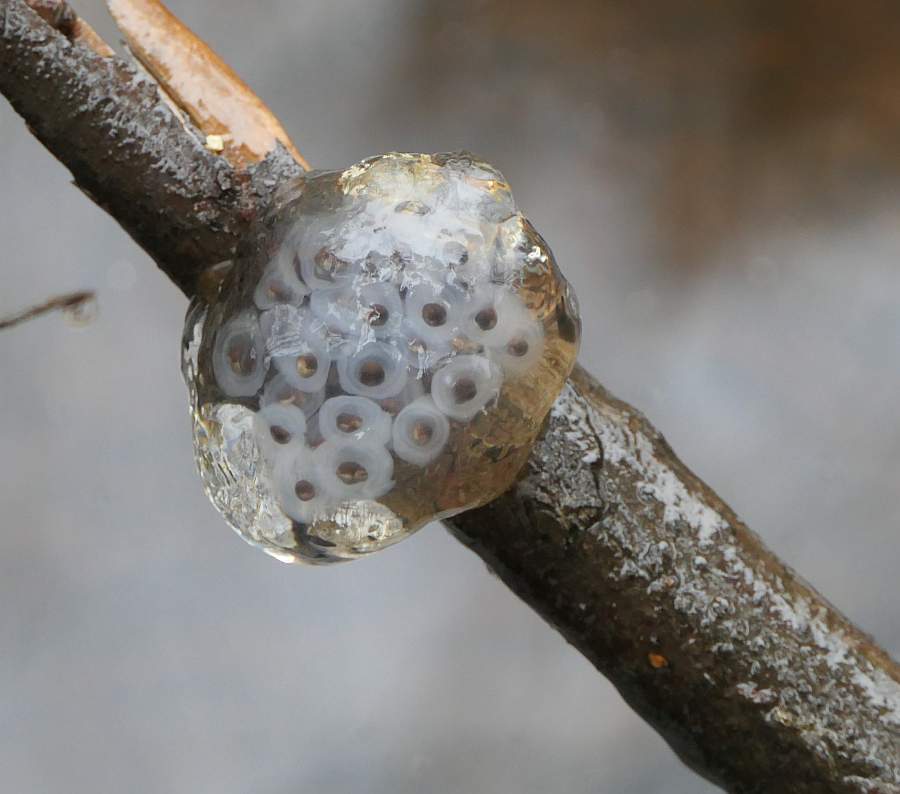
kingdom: Animalia
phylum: Chordata
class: Amphibia
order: Caudata
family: Ambystomatidae
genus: Ambystoma
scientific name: Ambystoma maculatum
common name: Spotted salamander
